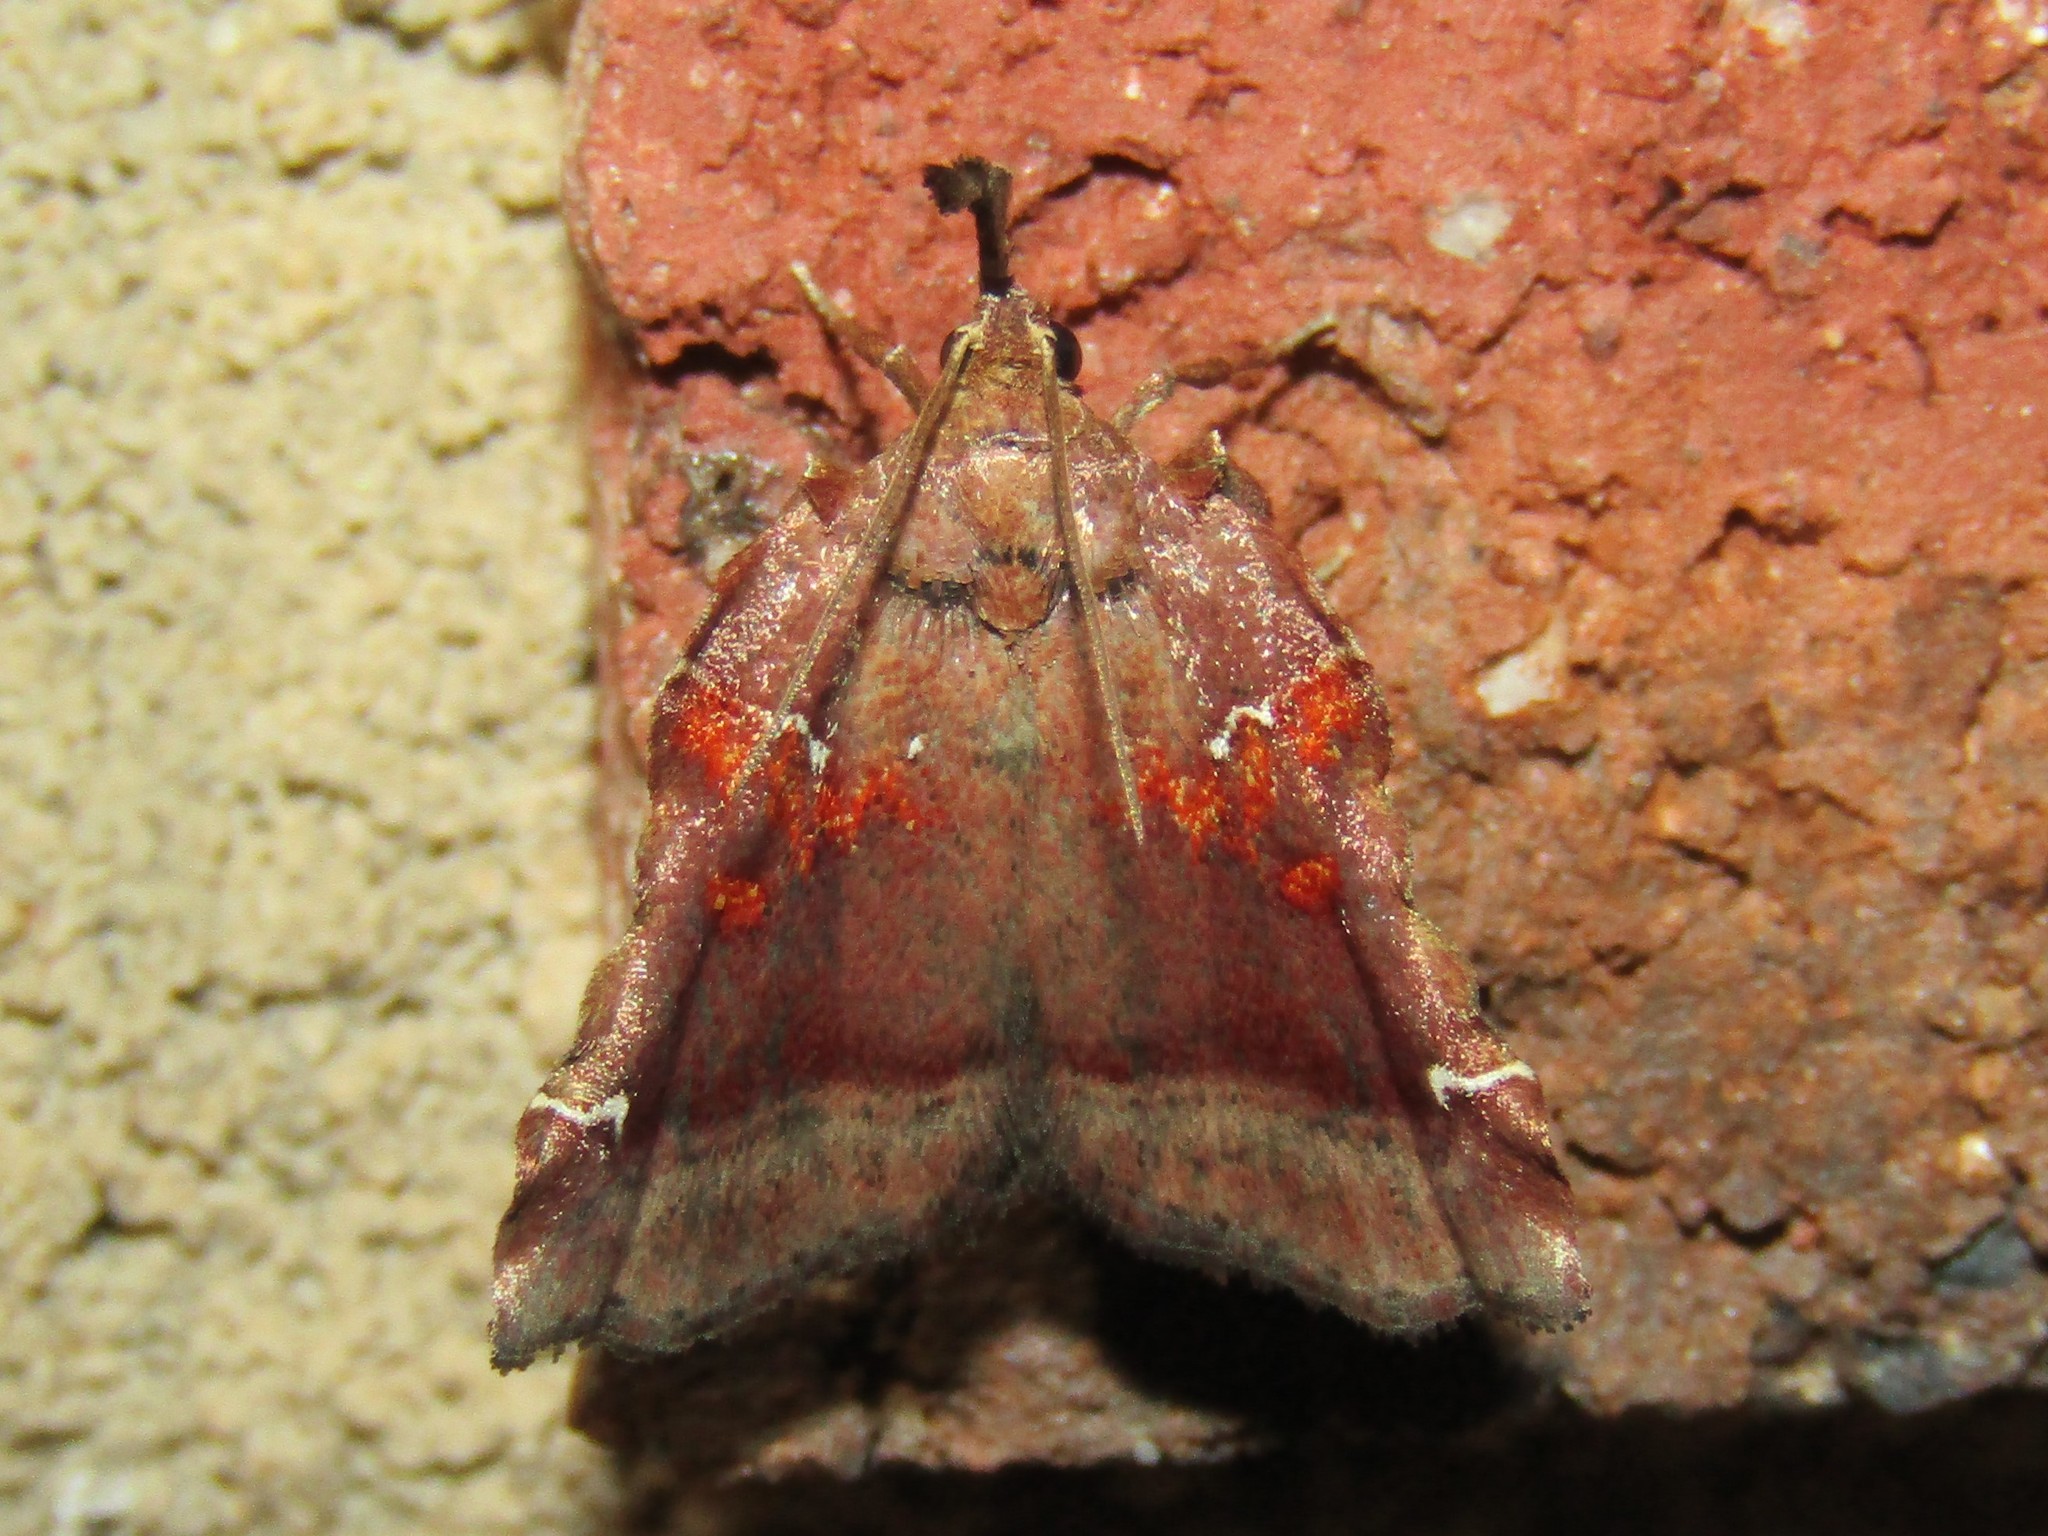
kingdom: Animalia
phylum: Arthropoda
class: Insecta
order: Lepidoptera
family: Pyralidae
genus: Clydonopteron
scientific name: Clydonopteron sacculana
